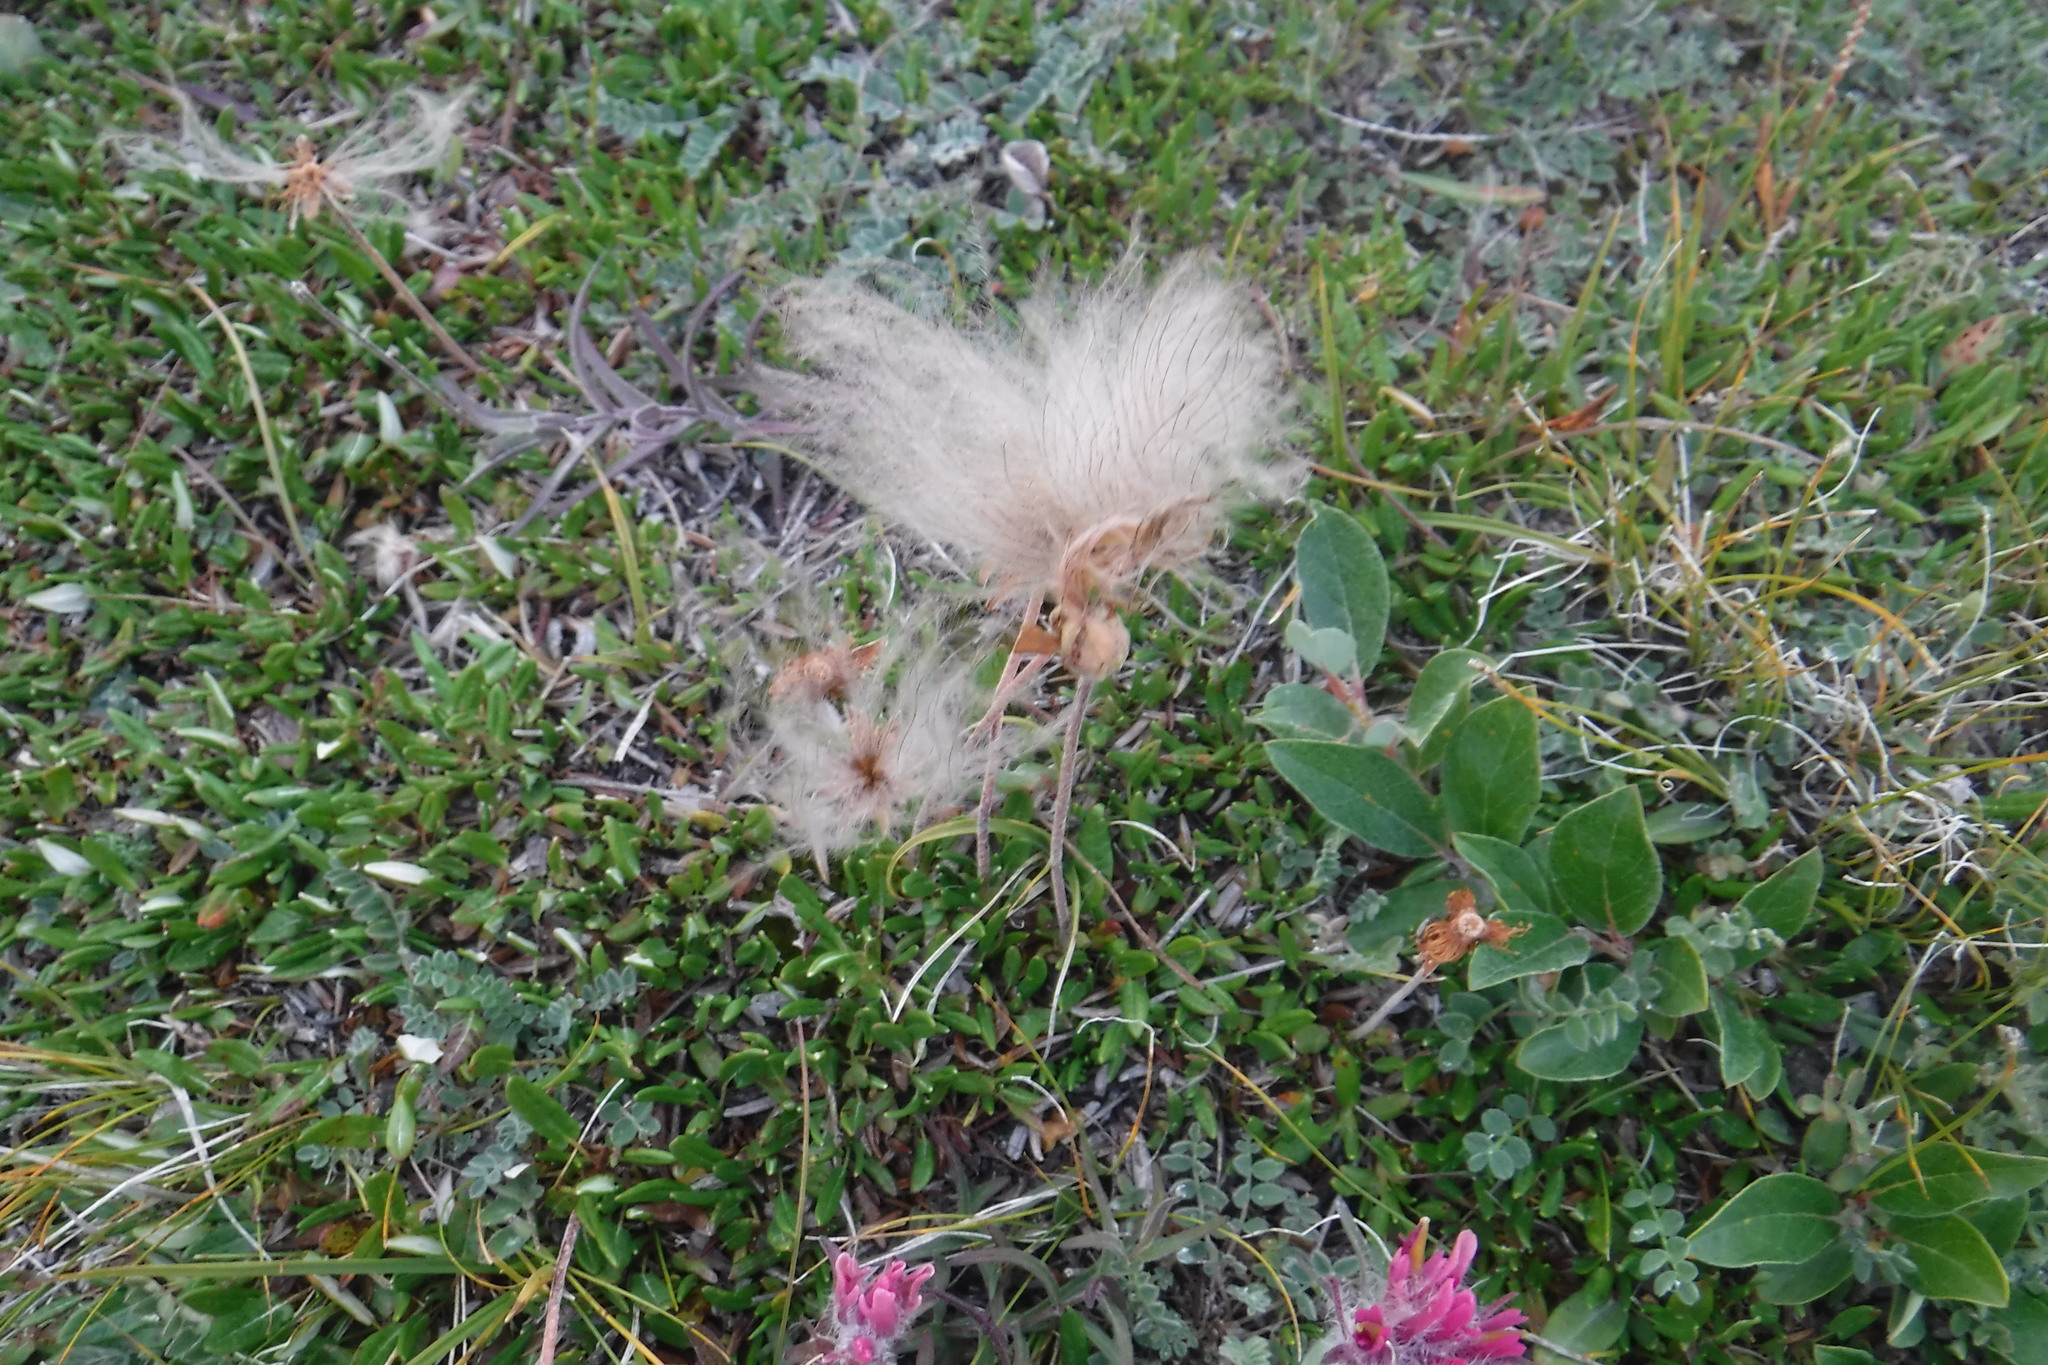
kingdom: Plantae
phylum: Tracheophyta
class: Magnoliopsida
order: Rosales
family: Rosaceae
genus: Dryas
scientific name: Dryas integrifolia
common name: Entire-leaved mountain avens
